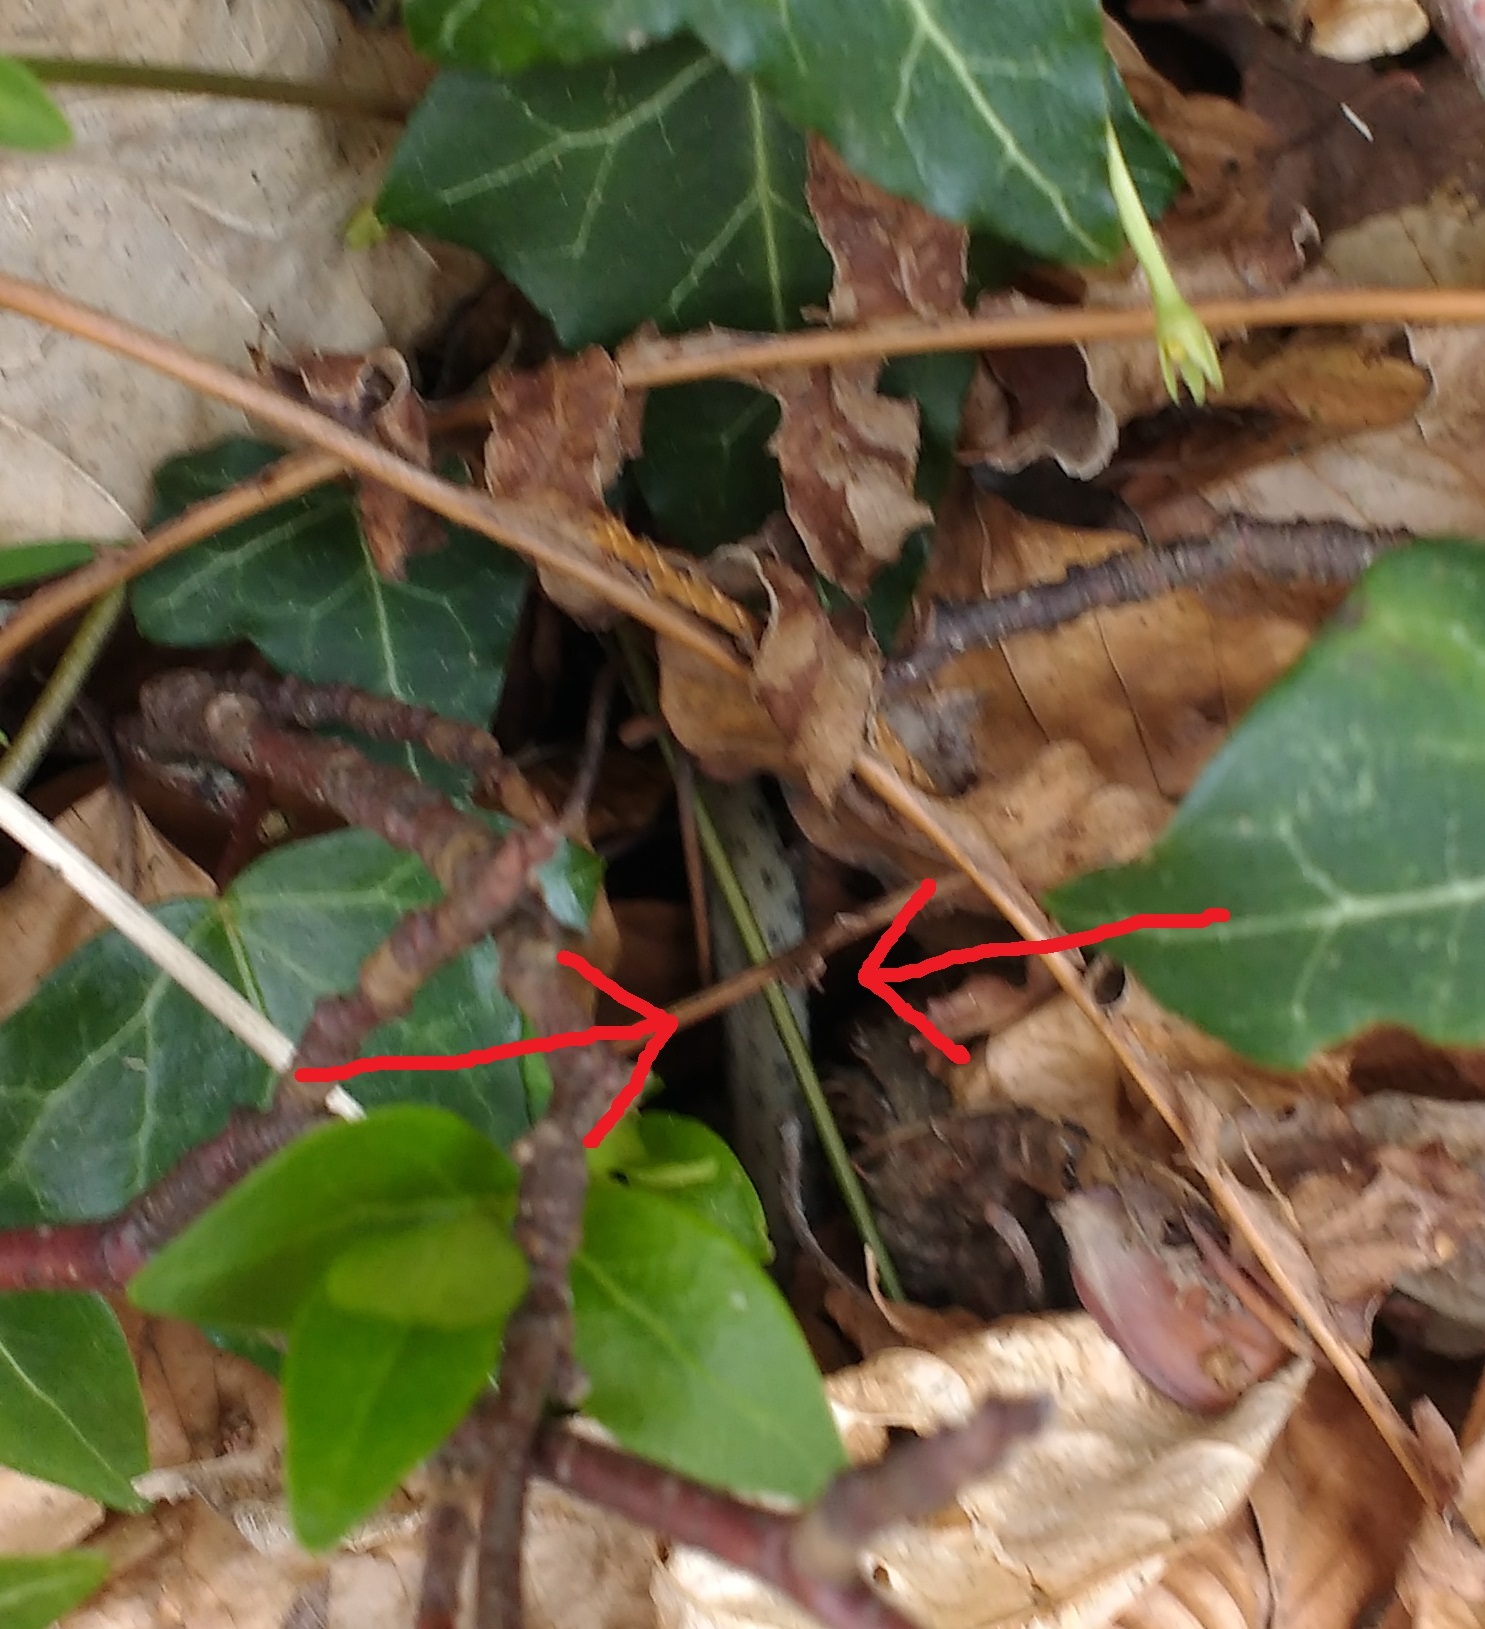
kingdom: Animalia
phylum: Chordata
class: Squamata
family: Colubridae
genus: Natrix
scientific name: Natrix helvetica
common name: Banded grass snake
